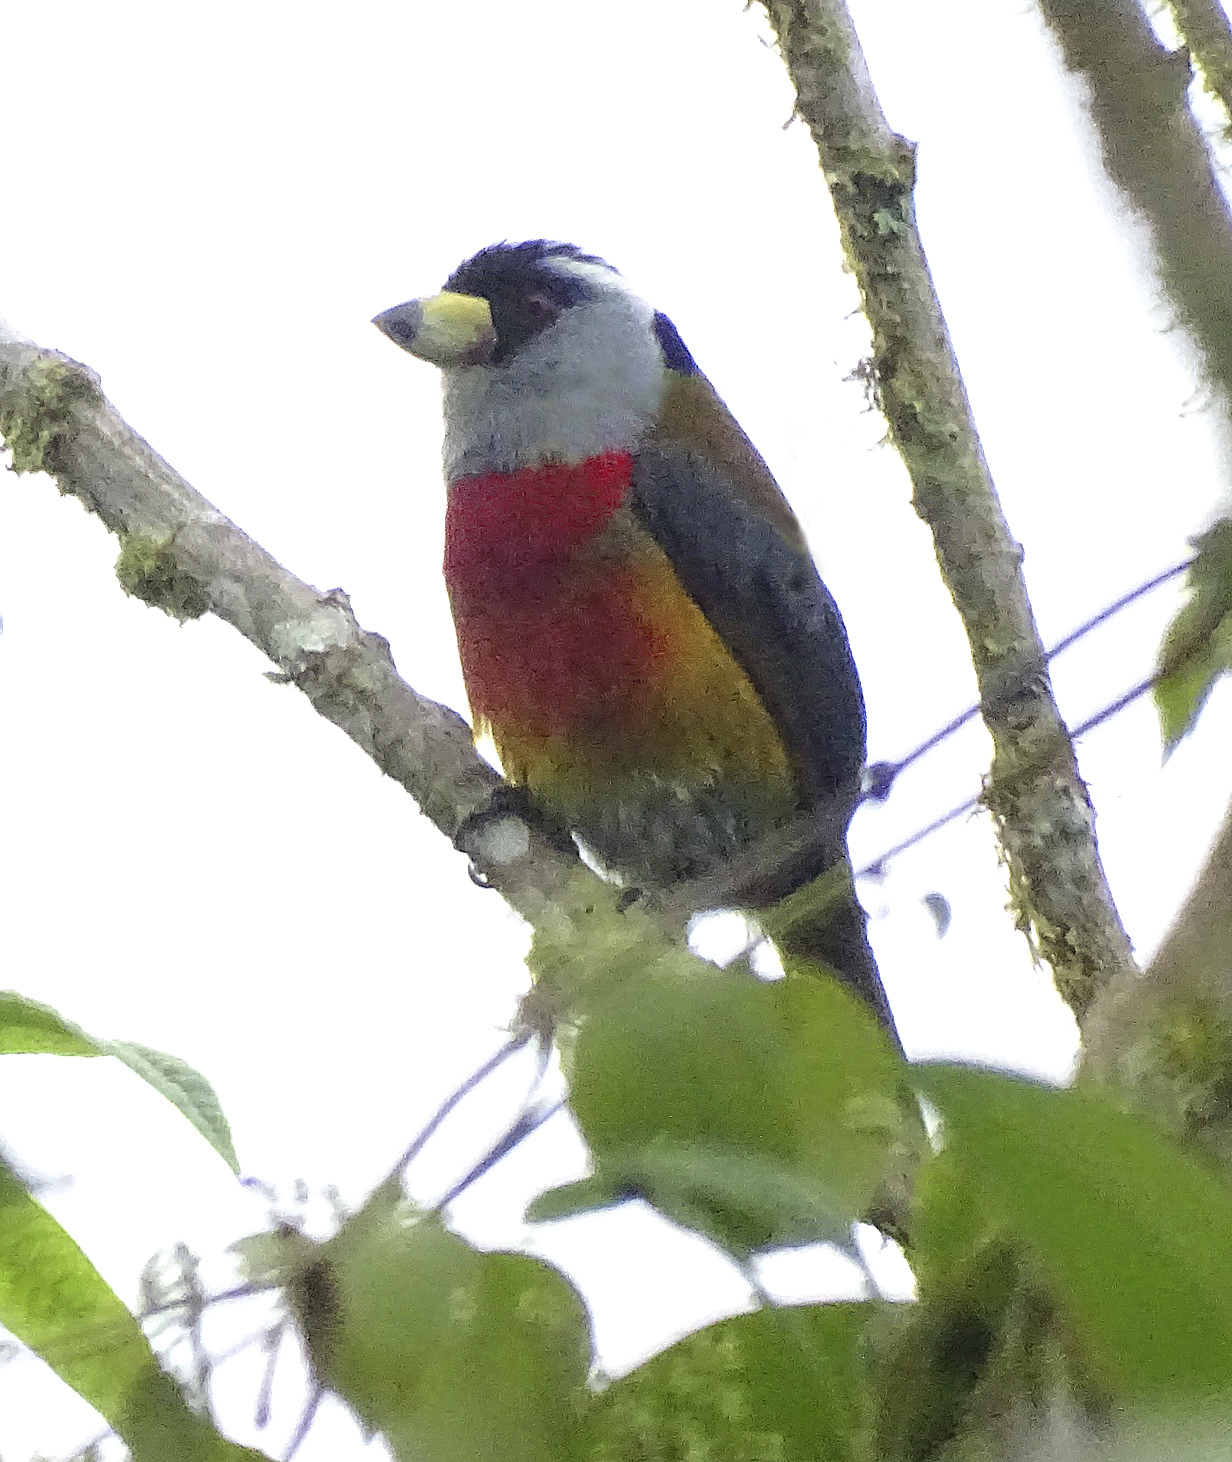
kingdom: Animalia
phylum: Chordata
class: Aves
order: Piciformes
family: Semnornithidae
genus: Semnornis
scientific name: Semnornis ramphastinus
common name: Toucan barbet
